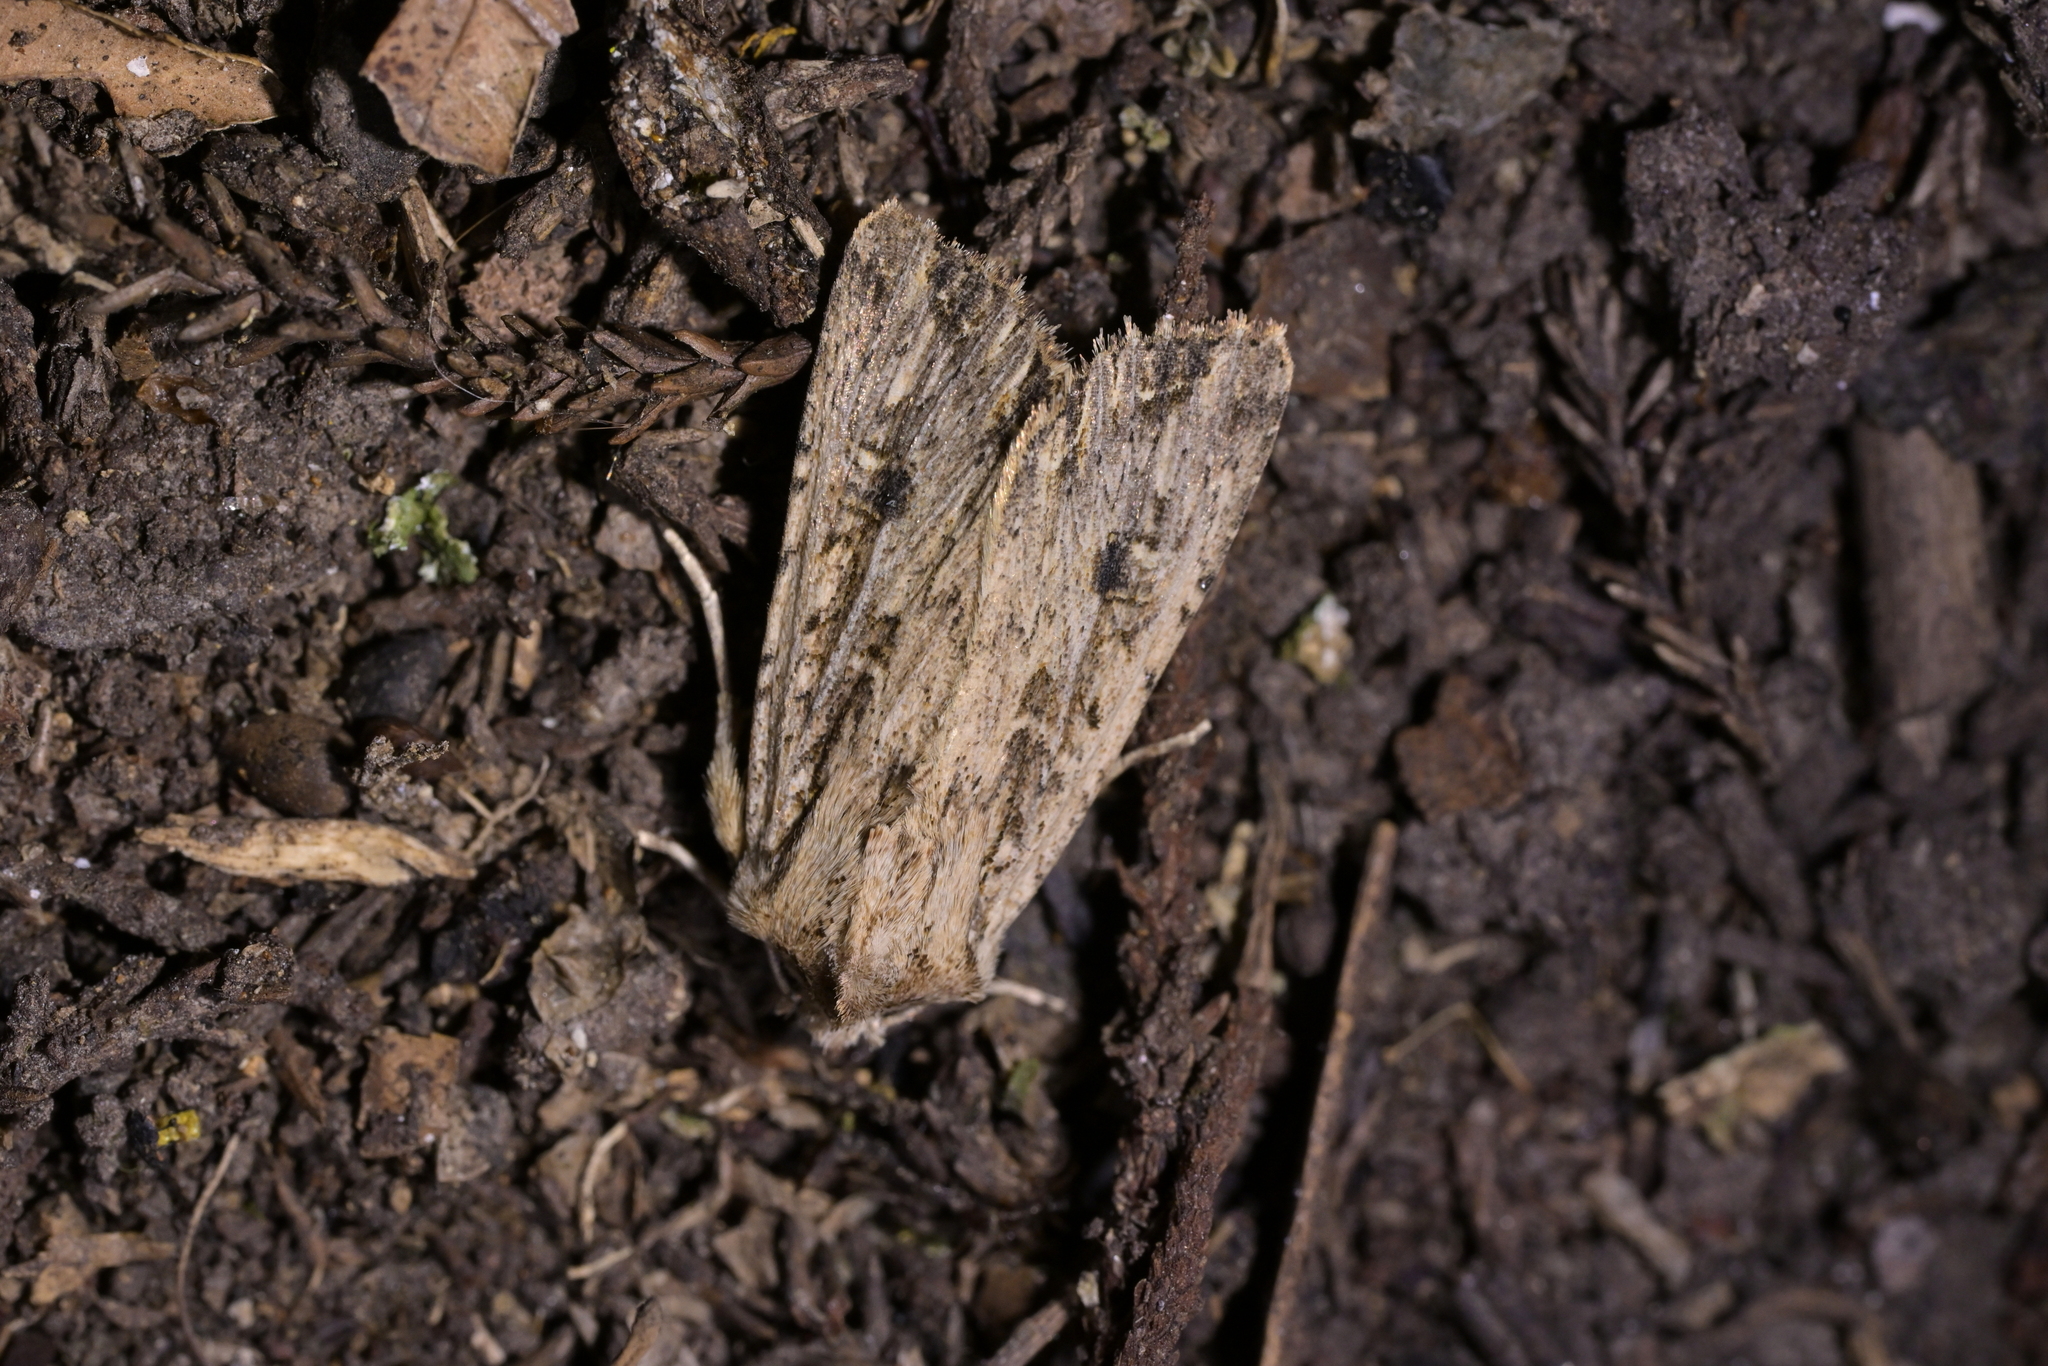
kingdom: Animalia
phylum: Arthropoda
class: Insecta
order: Lepidoptera
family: Noctuidae
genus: Ichneutica
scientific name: Ichneutica lignana
